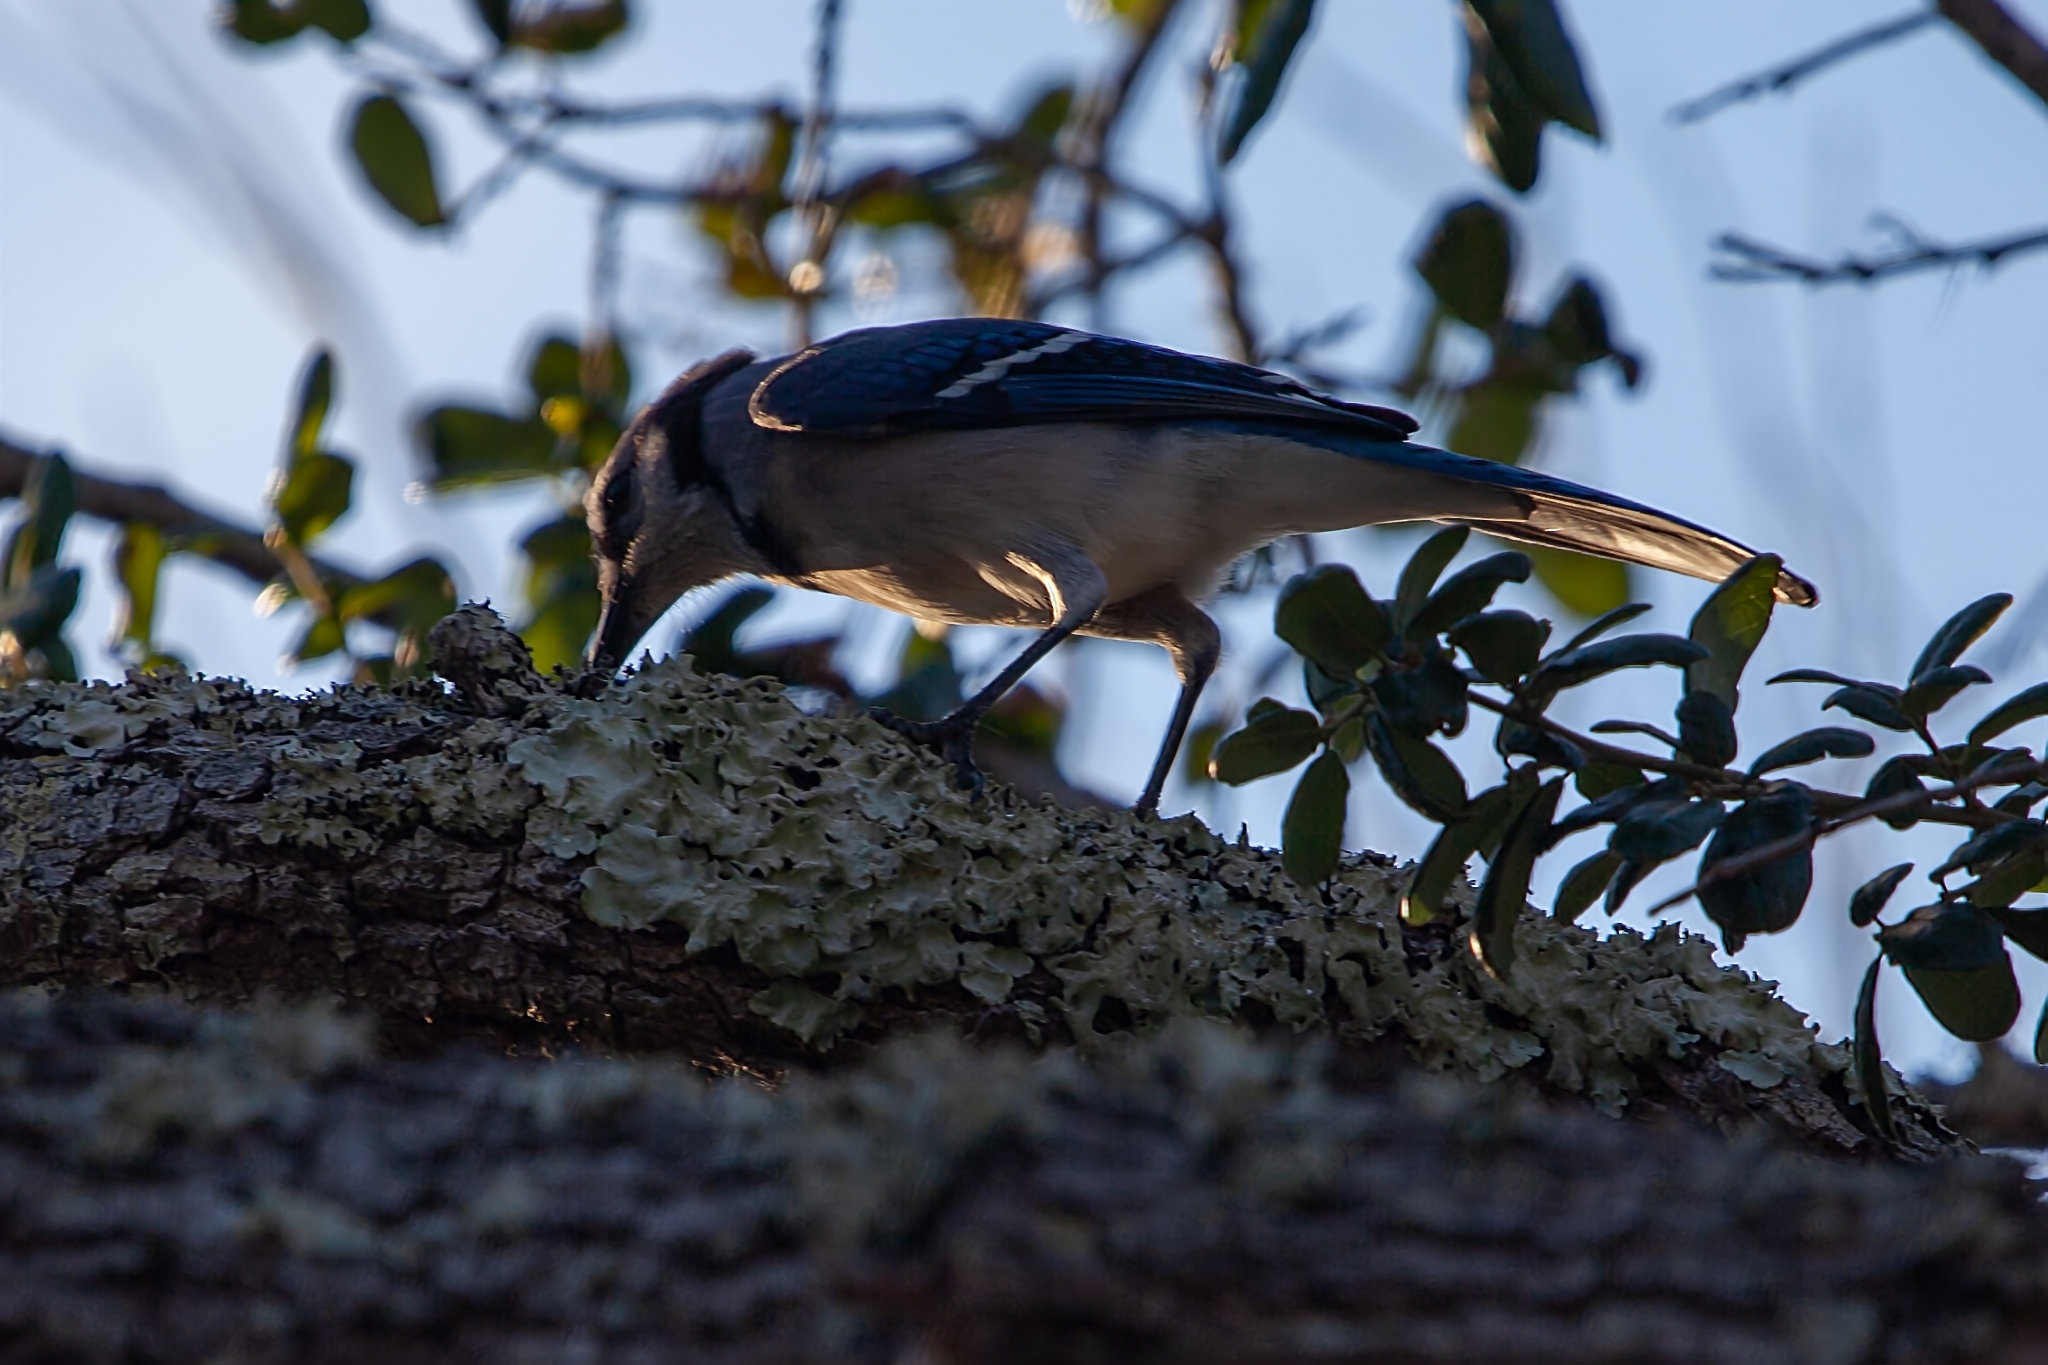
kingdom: Animalia
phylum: Chordata
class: Aves
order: Passeriformes
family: Corvidae
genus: Cyanocitta
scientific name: Cyanocitta cristata
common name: Blue jay
